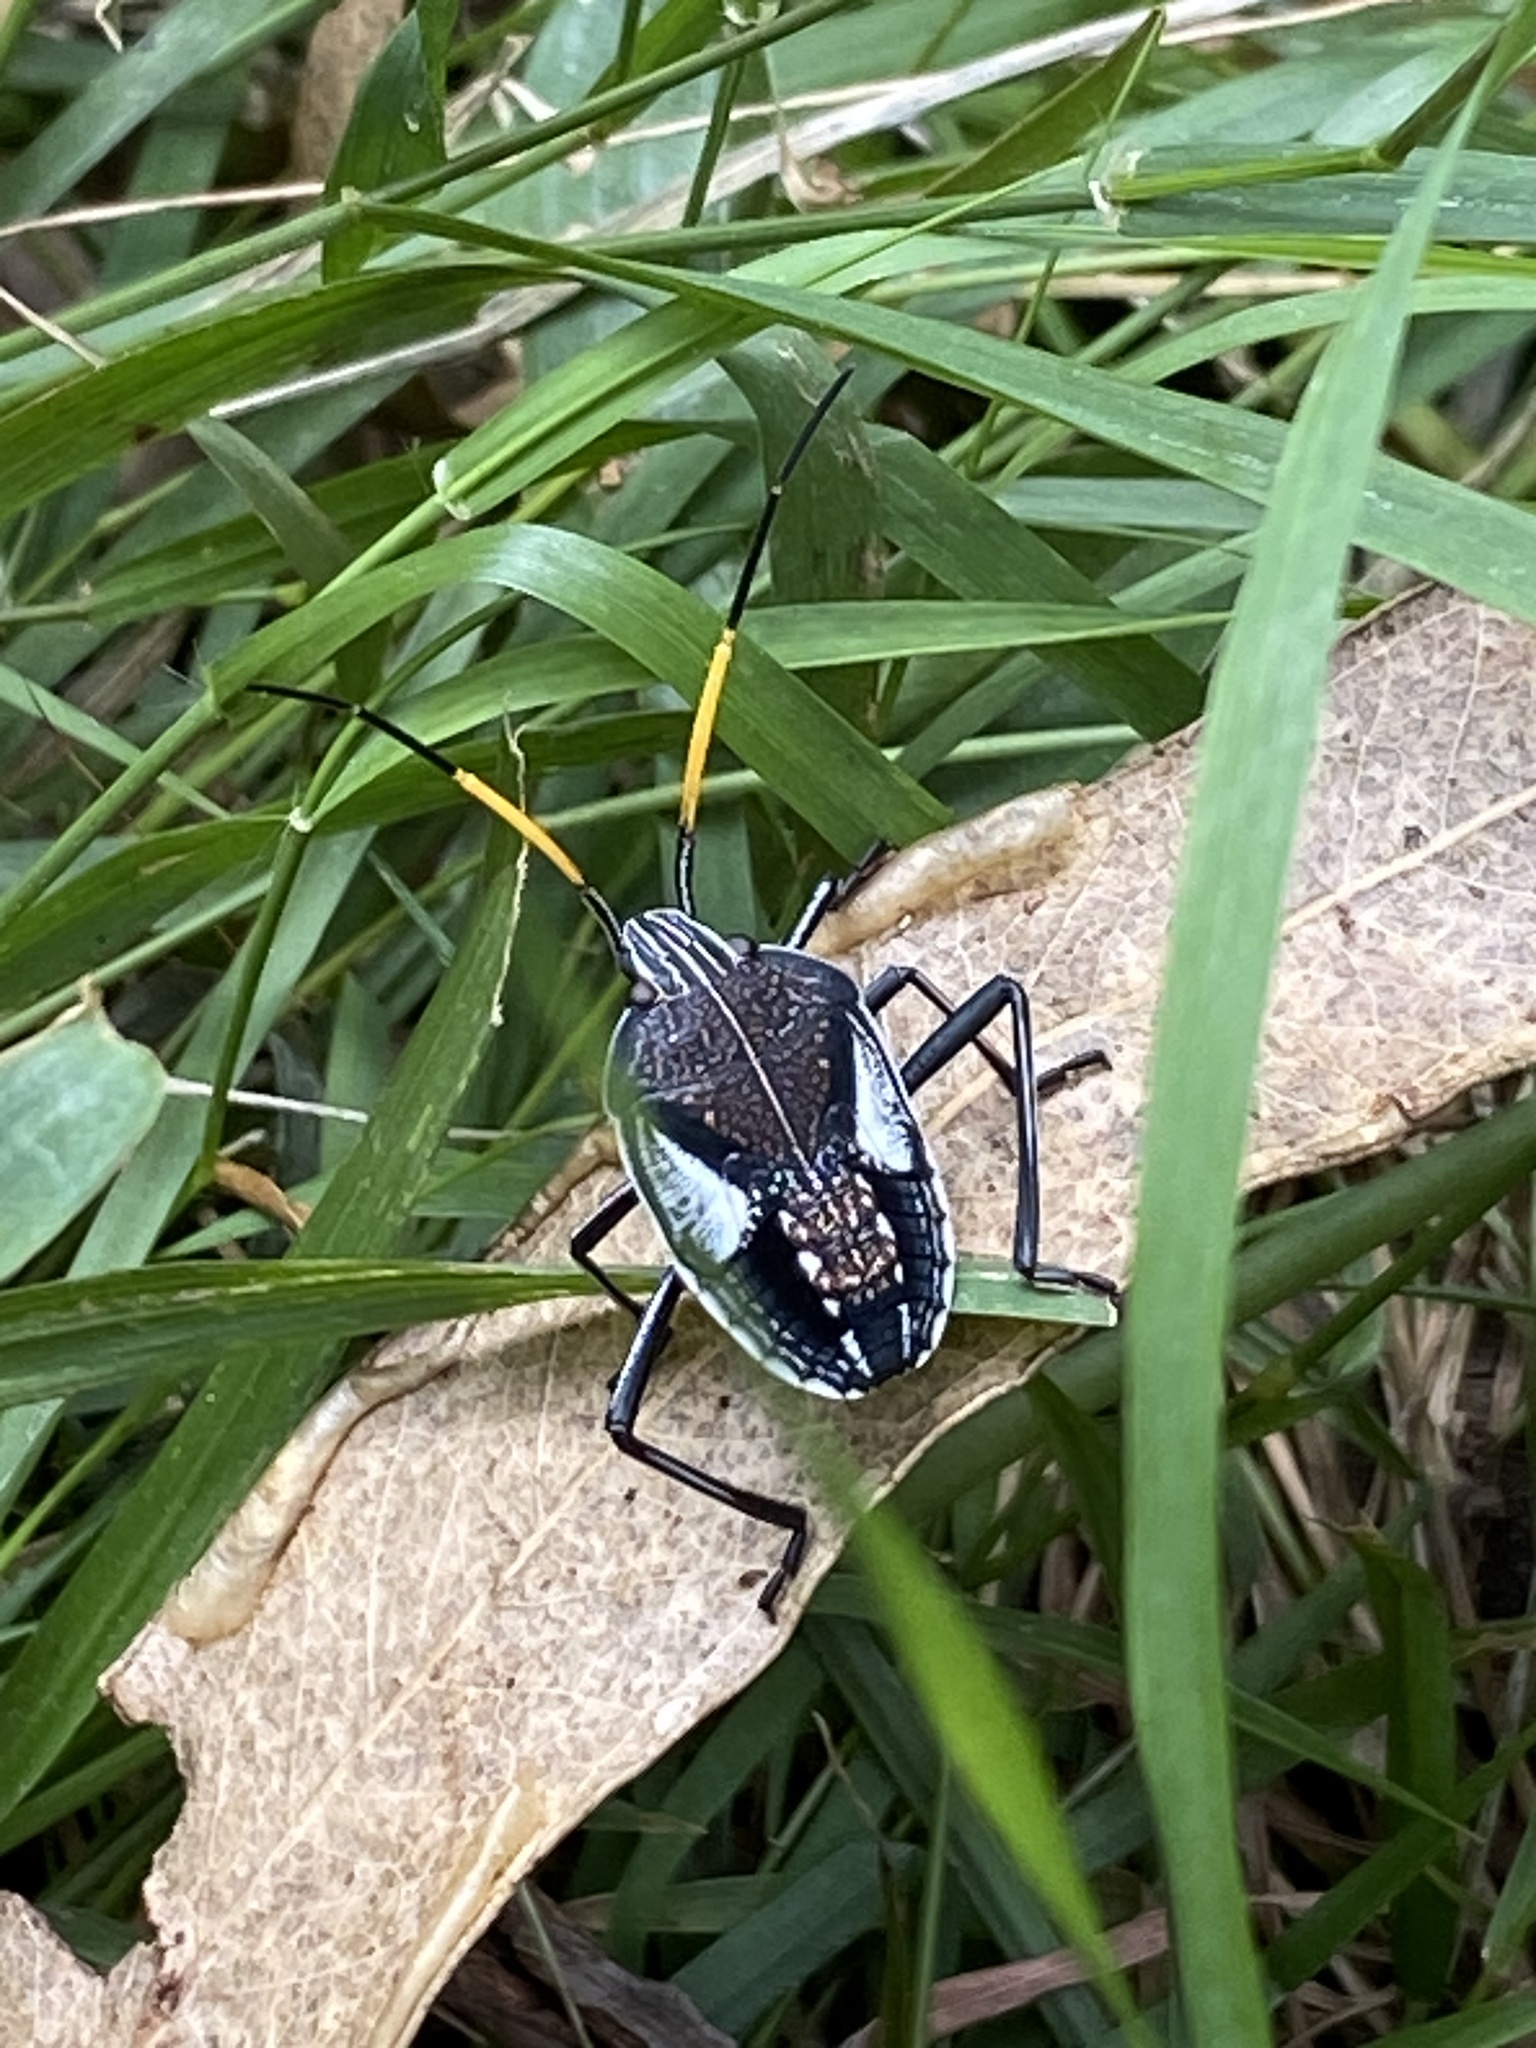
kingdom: Animalia
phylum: Arthropoda
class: Insecta
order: Hemiptera
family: Pentatomidae
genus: Poecilometis
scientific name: Poecilometis
